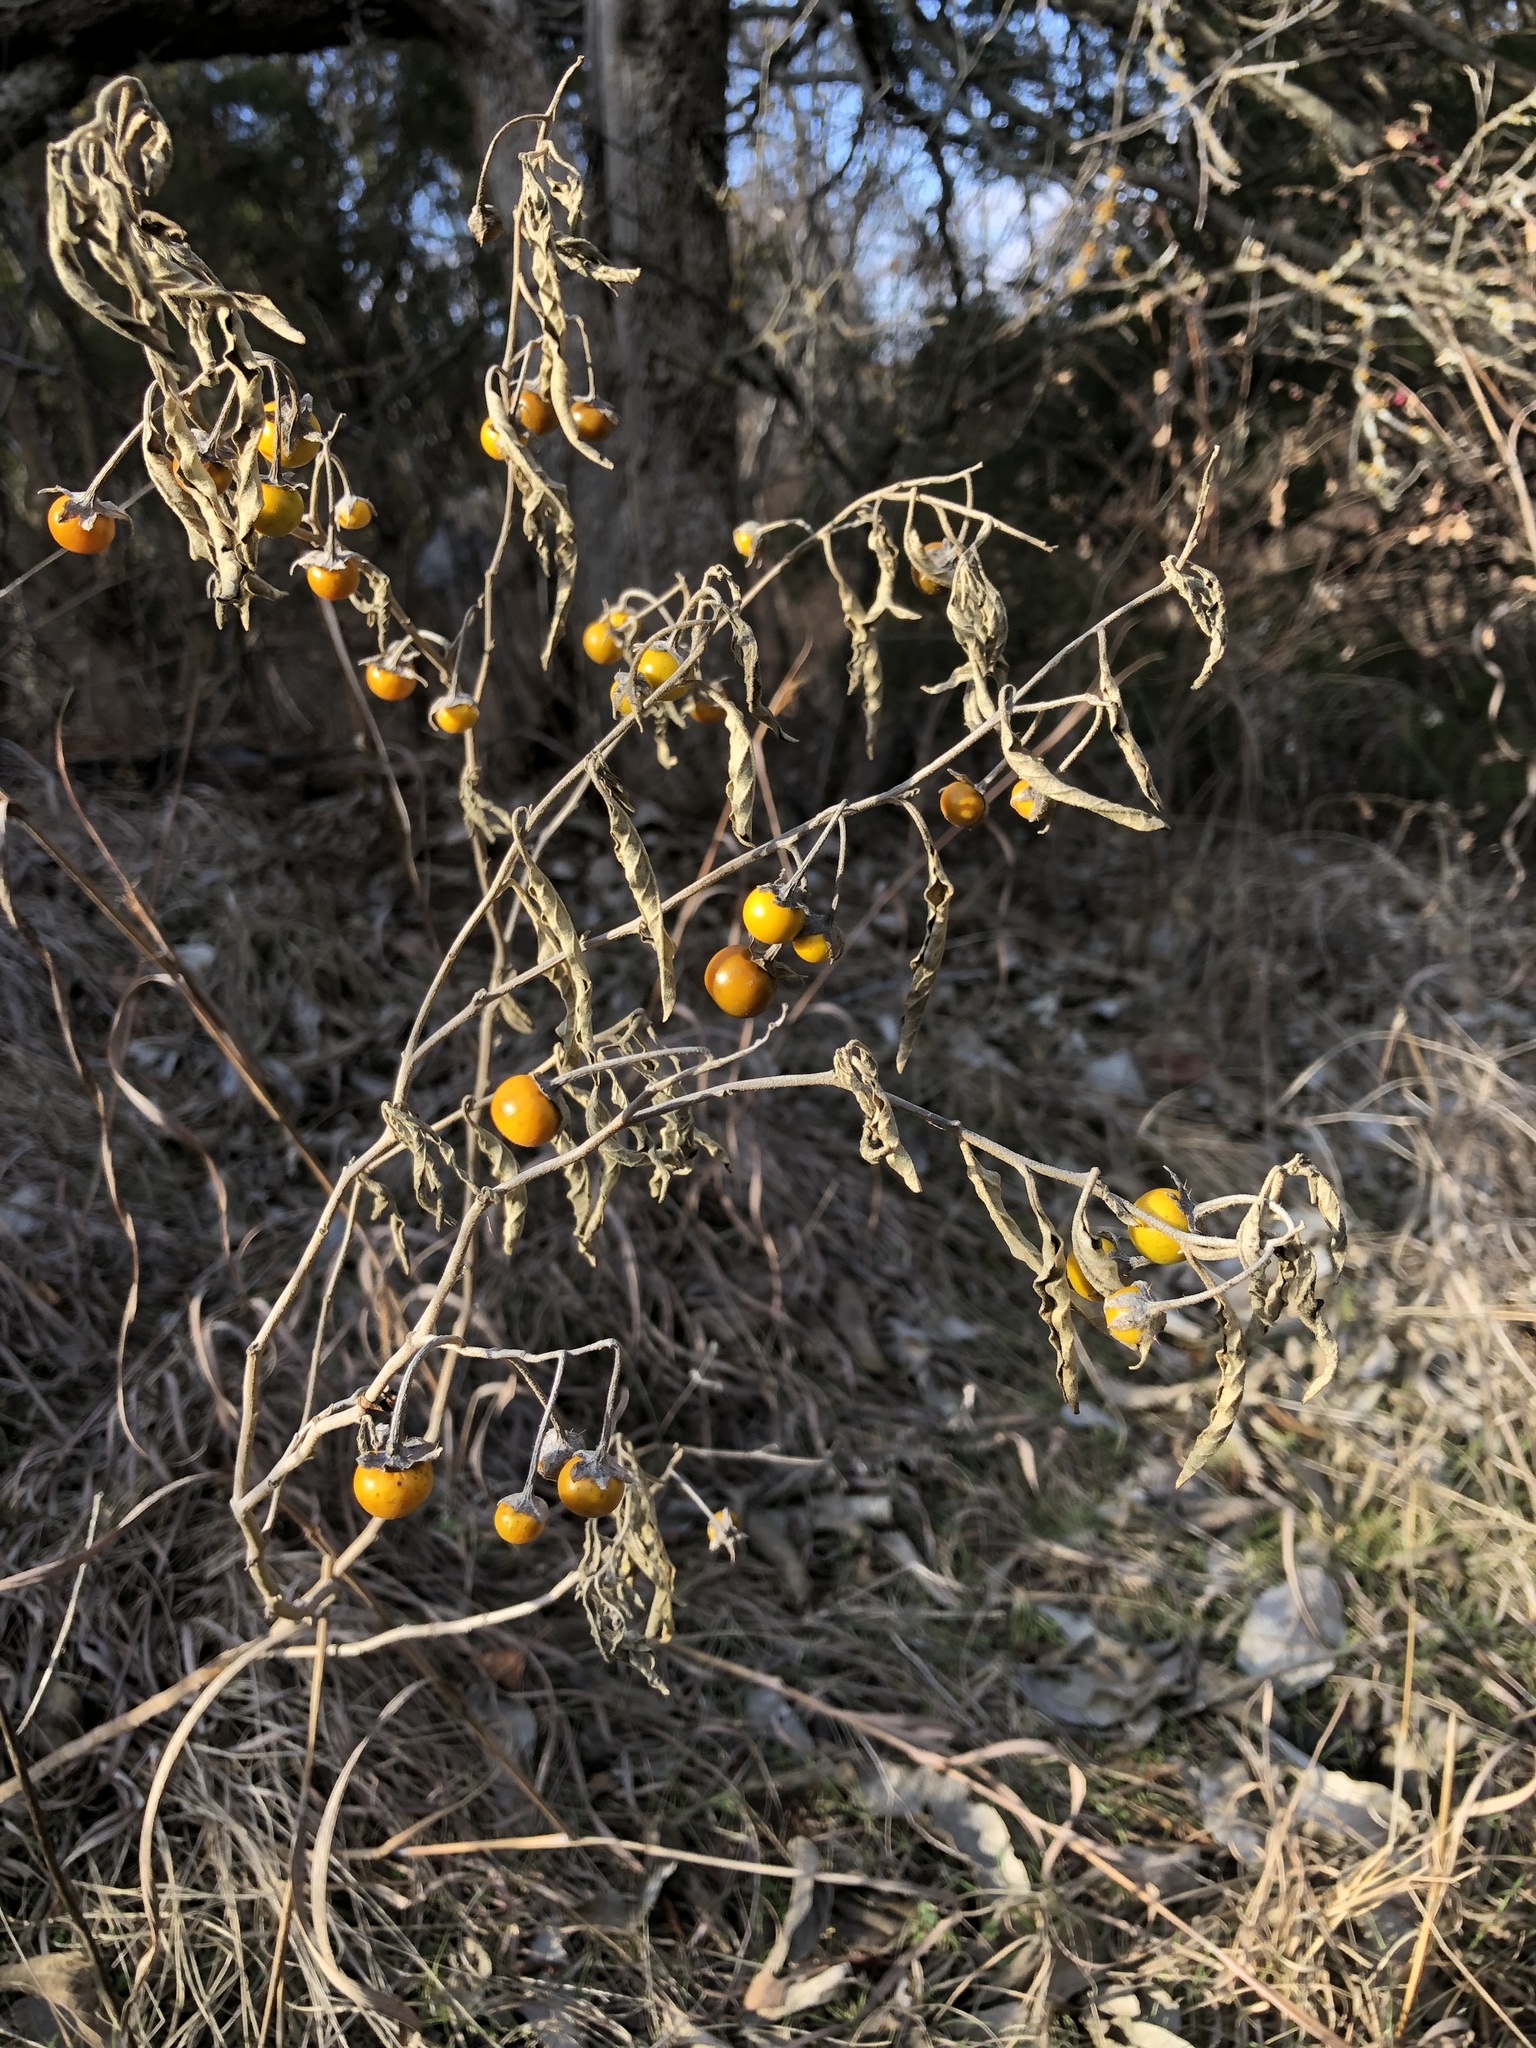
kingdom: Plantae
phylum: Tracheophyta
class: Magnoliopsida
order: Solanales
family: Solanaceae
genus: Solanum
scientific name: Solanum elaeagnifolium
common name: Silverleaf nightshade
